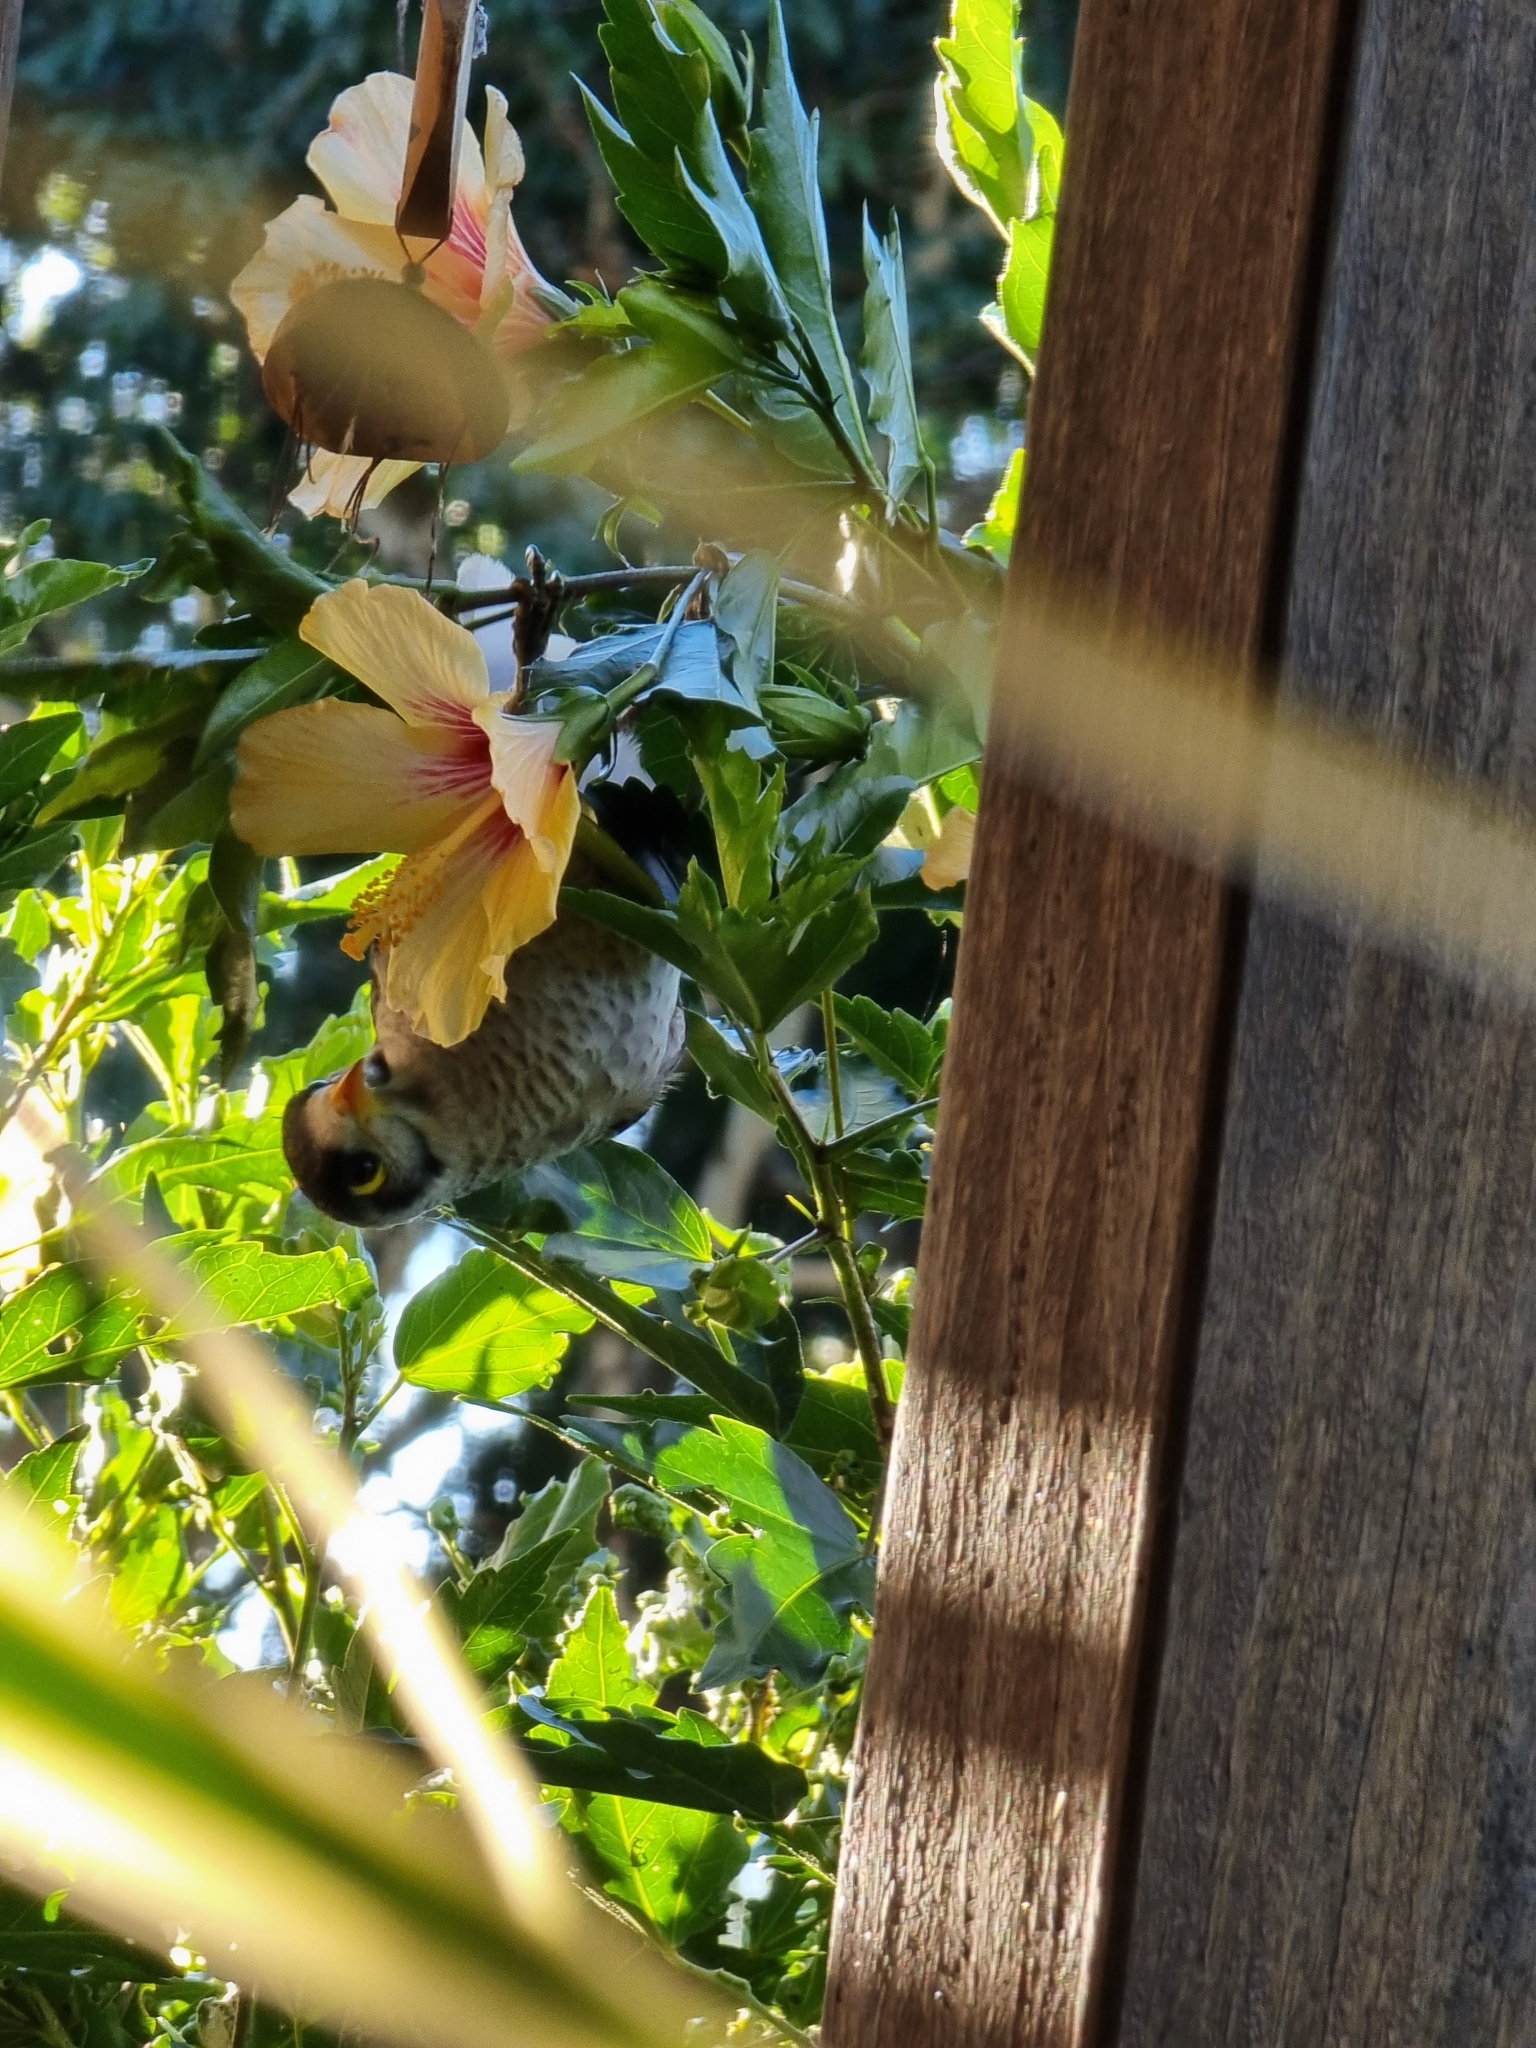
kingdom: Animalia
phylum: Chordata
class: Aves
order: Passeriformes
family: Meliphagidae
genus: Manorina
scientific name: Manorina melanocephala
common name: Noisy miner
